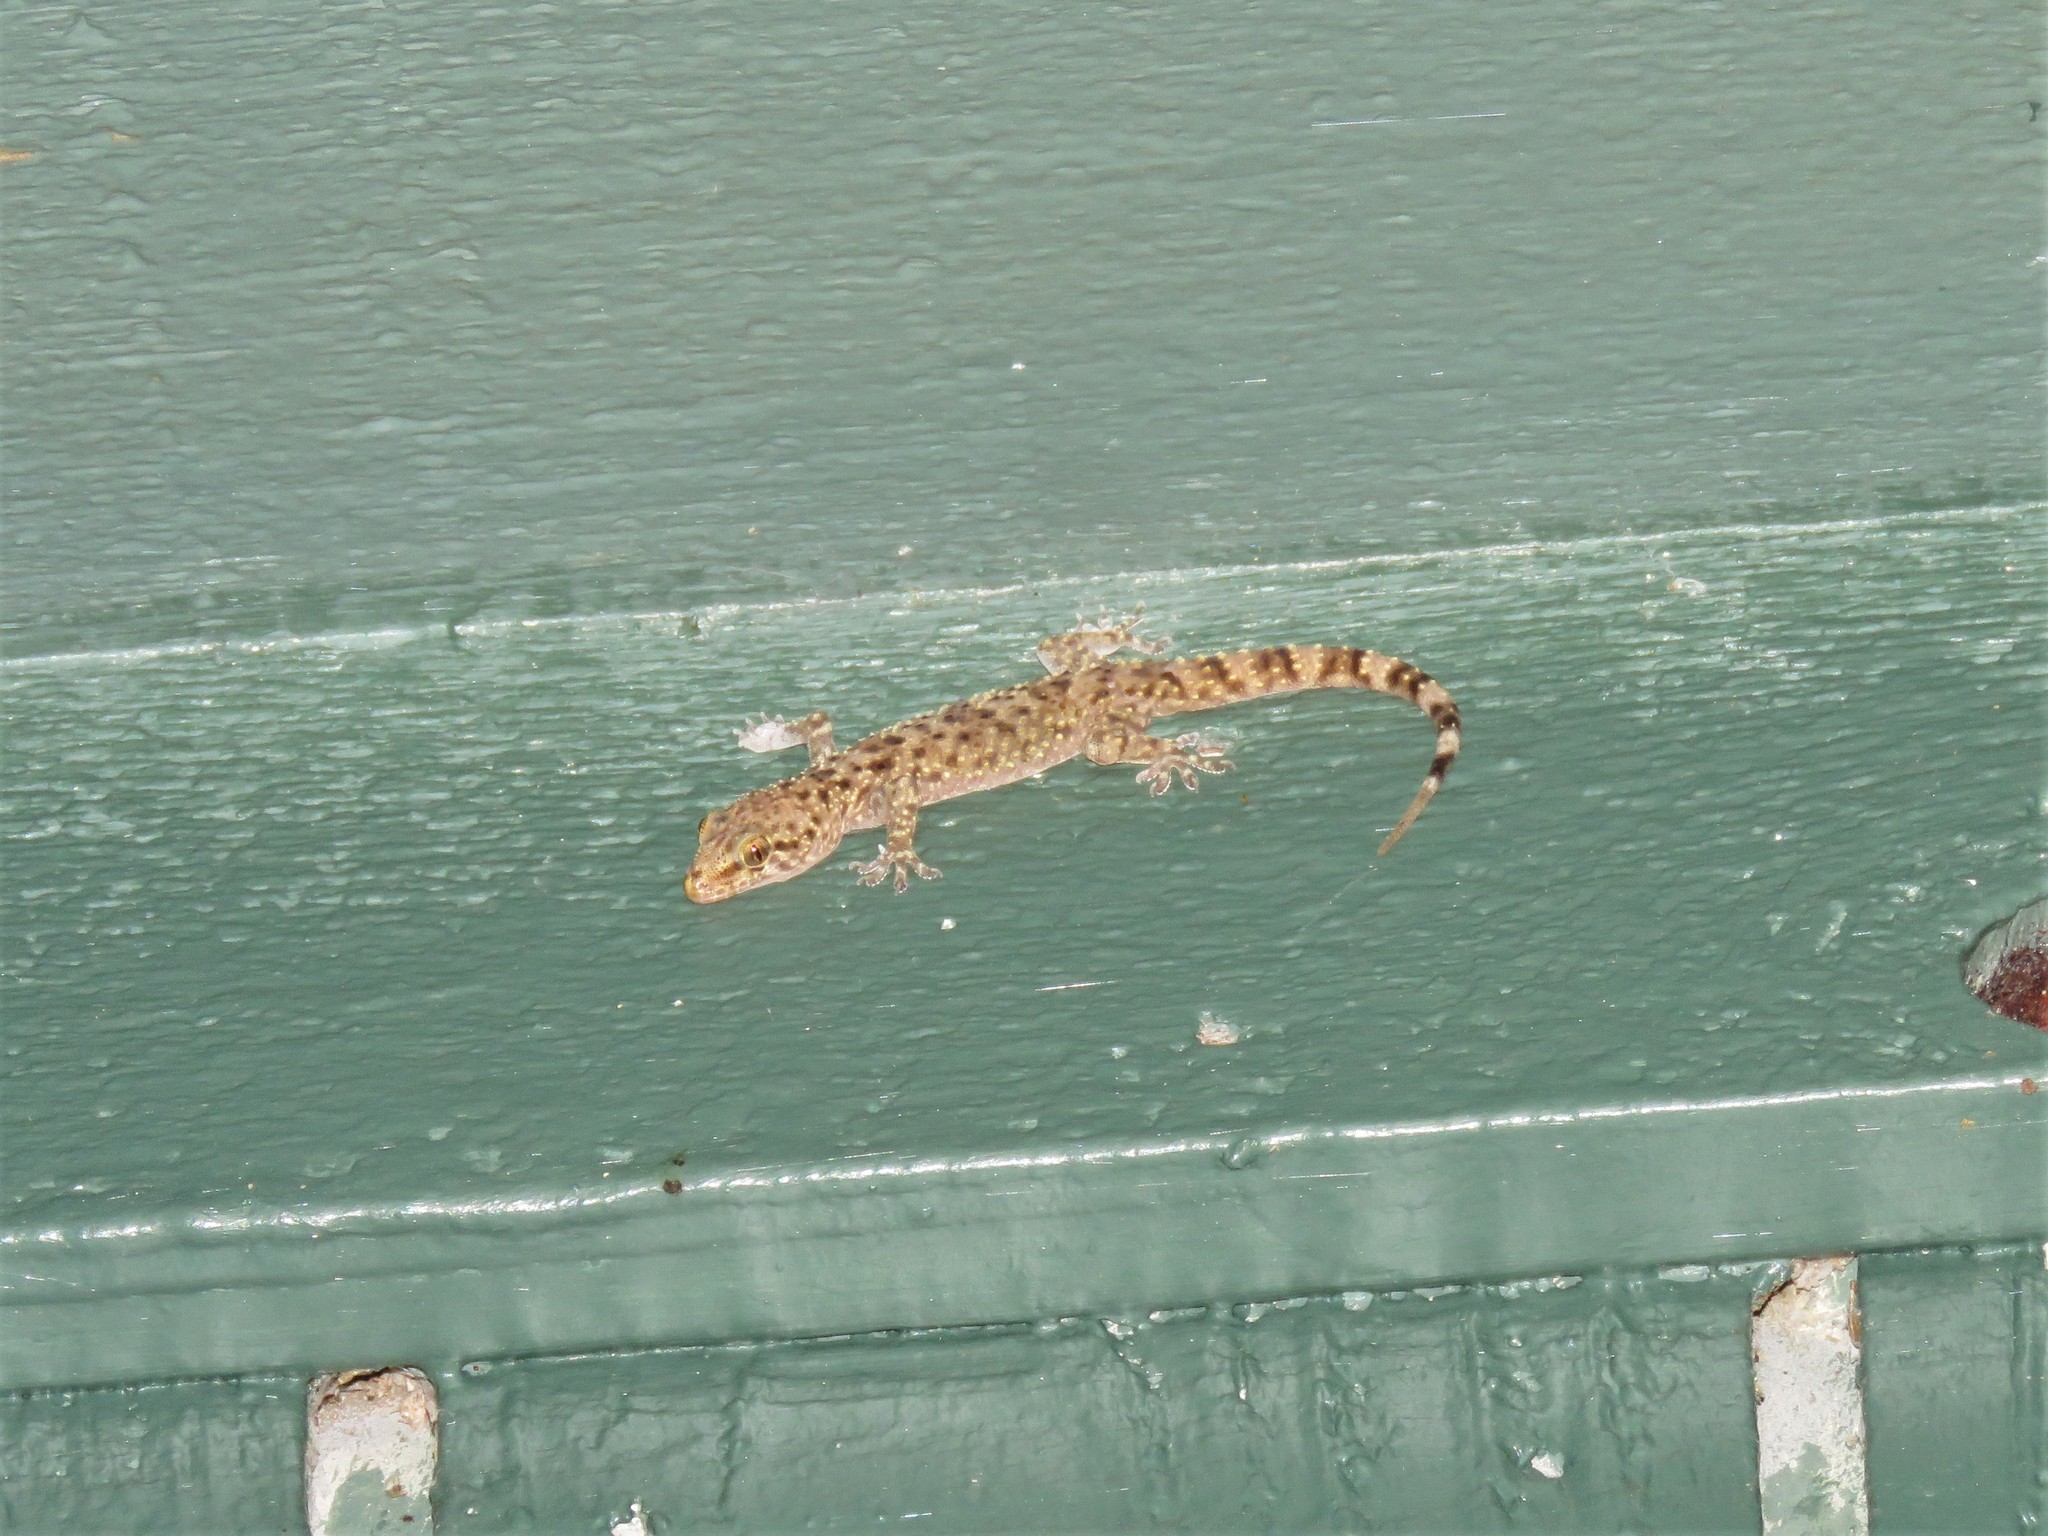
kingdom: Animalia
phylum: Chordata
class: Squamata
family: Gekkonidae
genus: Hemidactylus
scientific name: Hemidactylus turcicus
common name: Turkish gecko
